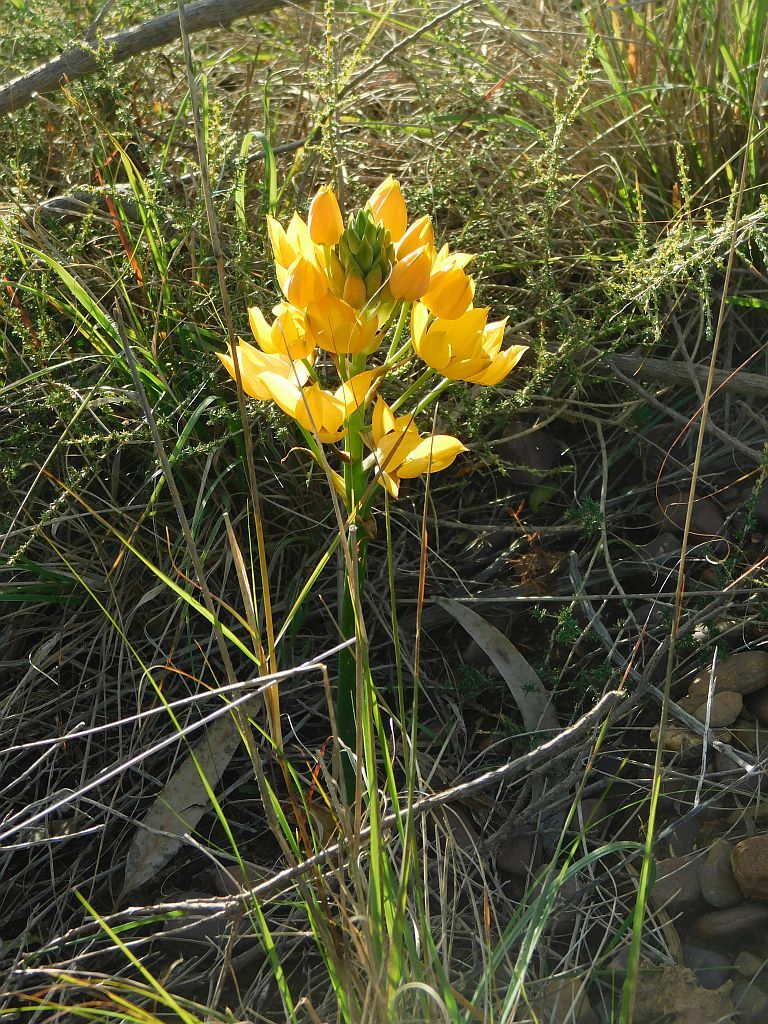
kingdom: Plantae
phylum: Tracheophyta
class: Liliopsida
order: Asparagales
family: Asparagaceae
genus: Ornithogalum
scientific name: Ornithogalum dubium
